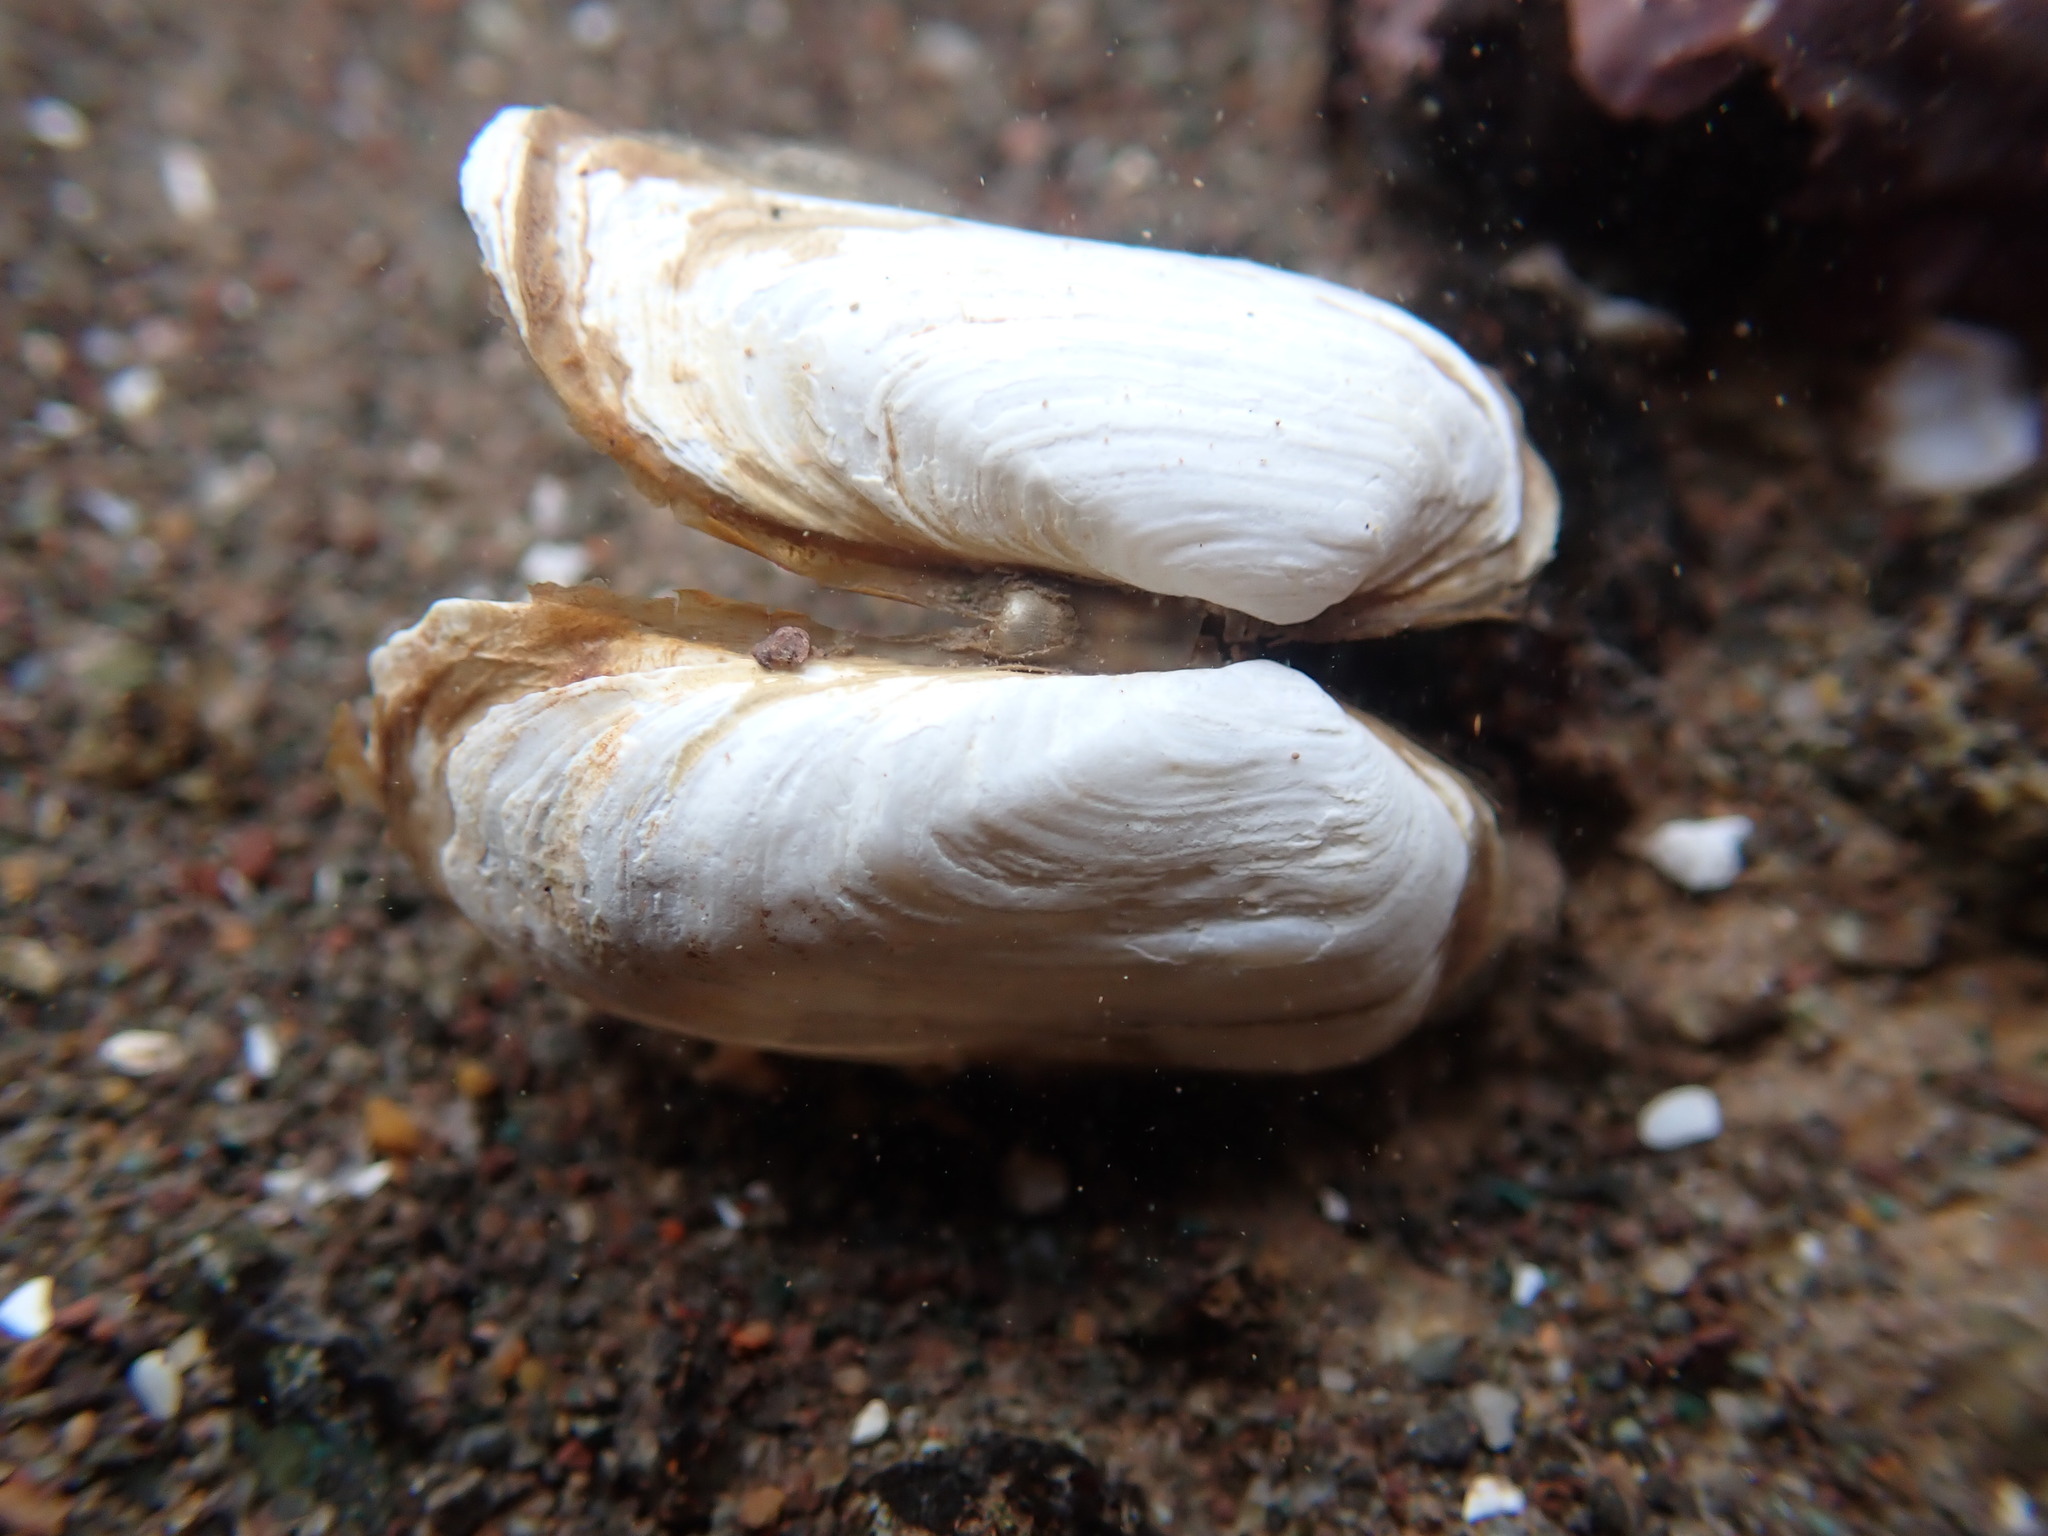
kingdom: Animalia
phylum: Mollusca
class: Bivalvia
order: Adapedonta
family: Hiatellidae
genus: Hiatella
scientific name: Hiatella arctica
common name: Arctic hiatella
